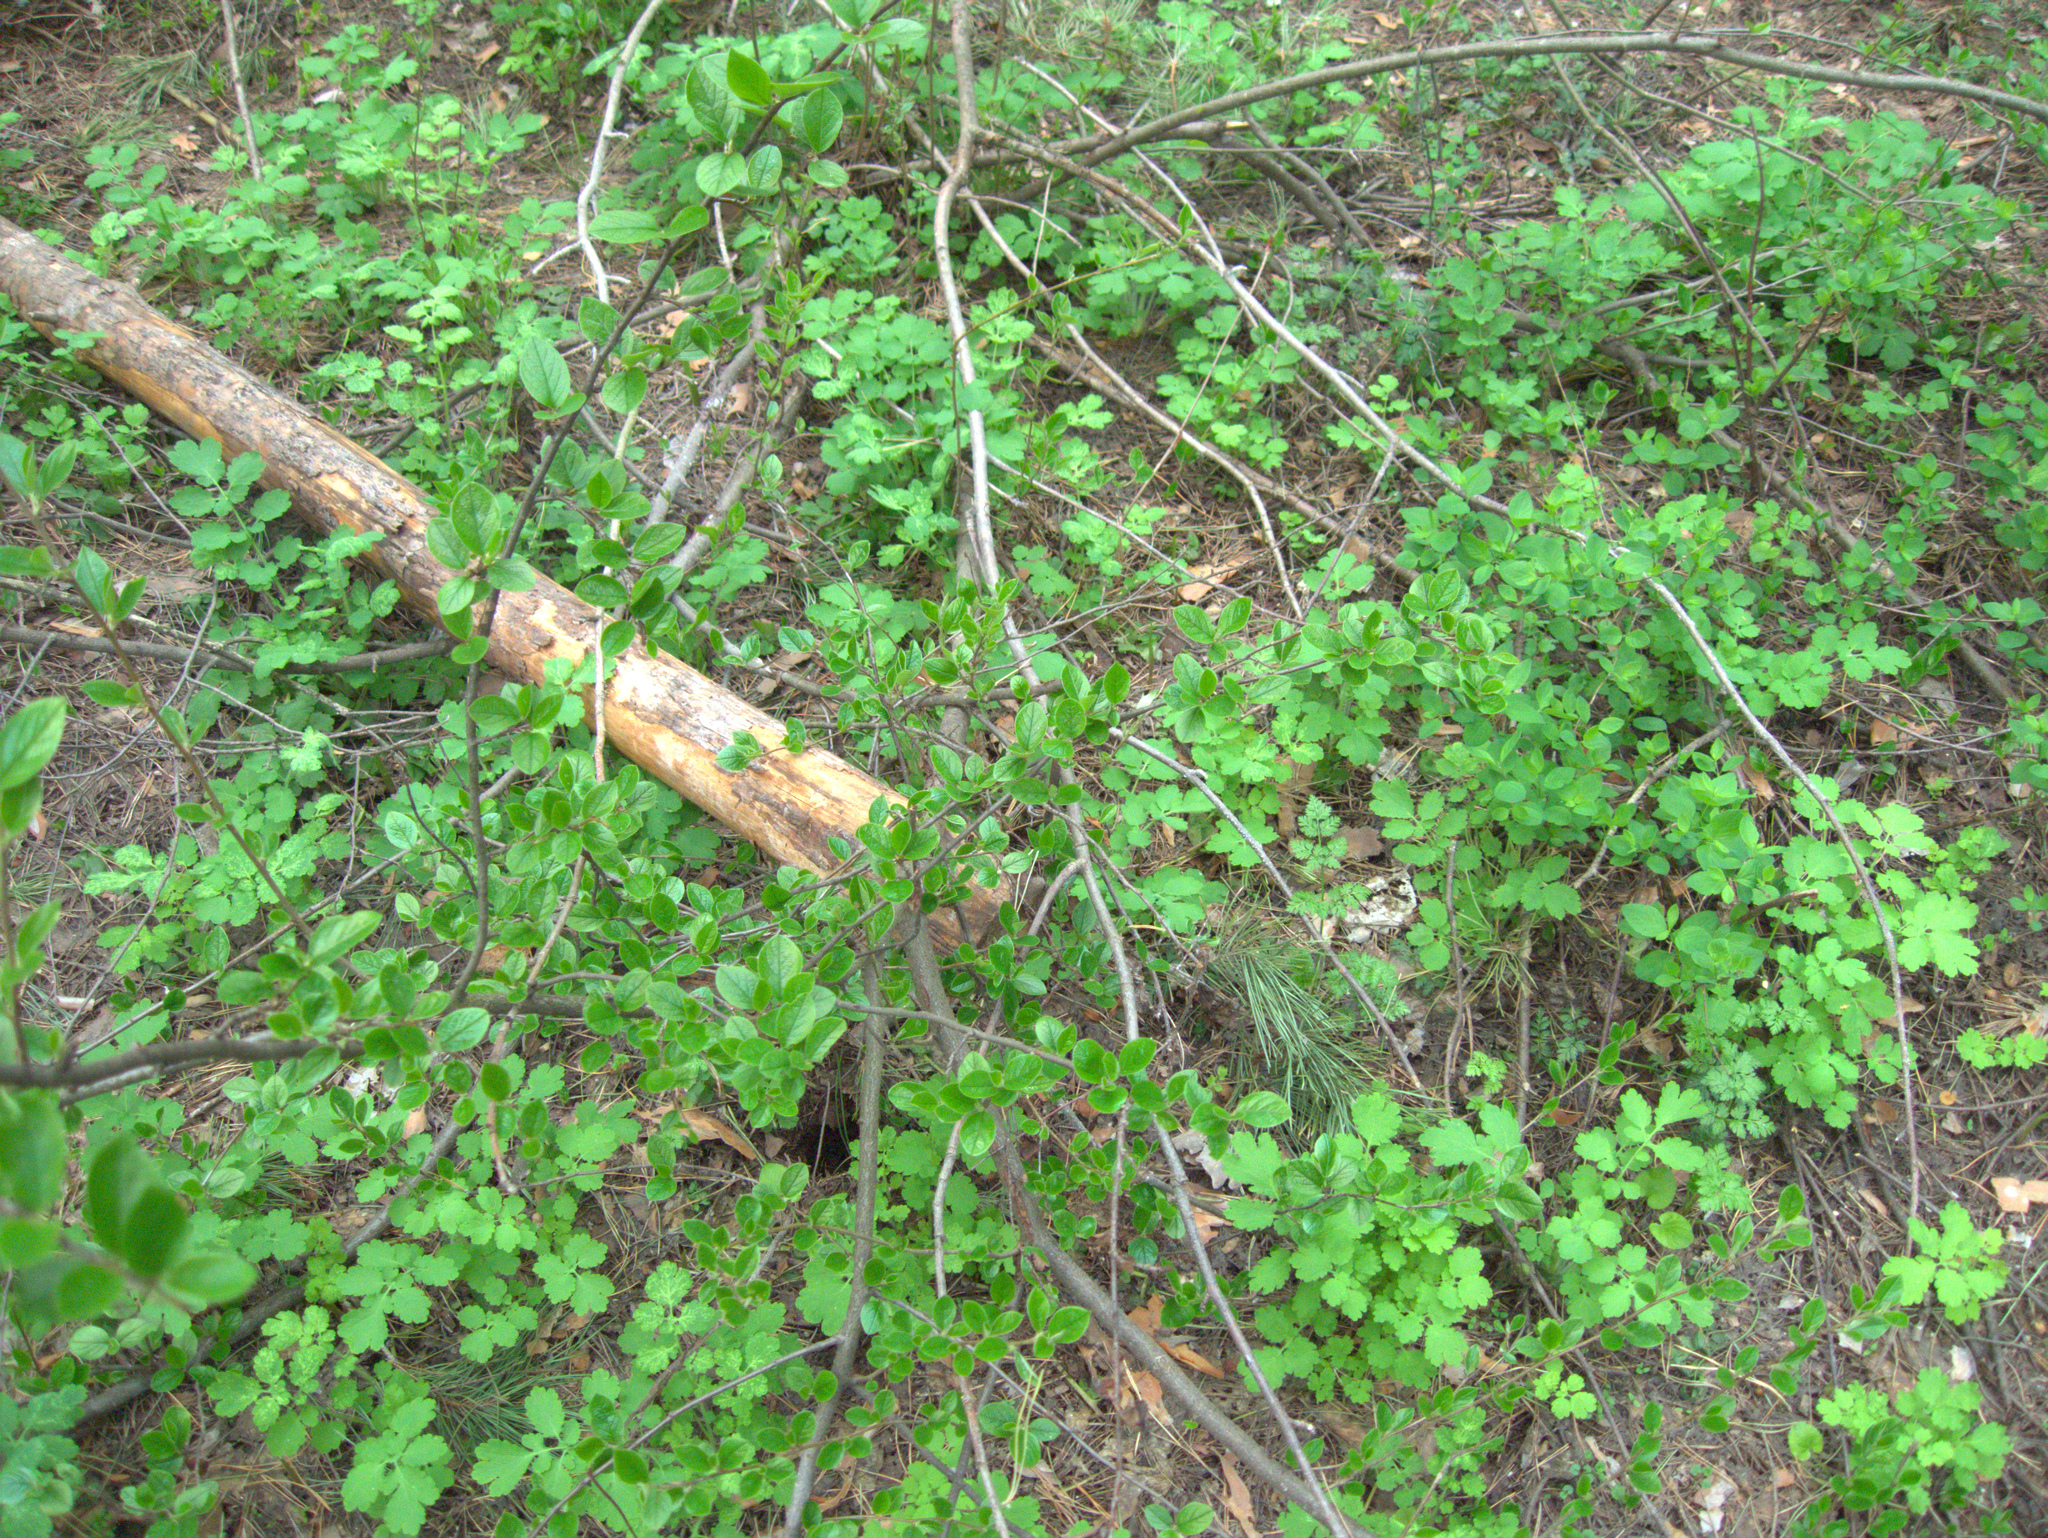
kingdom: Plantae
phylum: Tracheophyta
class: Magnoliopsida
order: Rosales
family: Rosaceae
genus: Cotoneaster
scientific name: Cotoneaster acutifolius
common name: Peking cotoneaster
